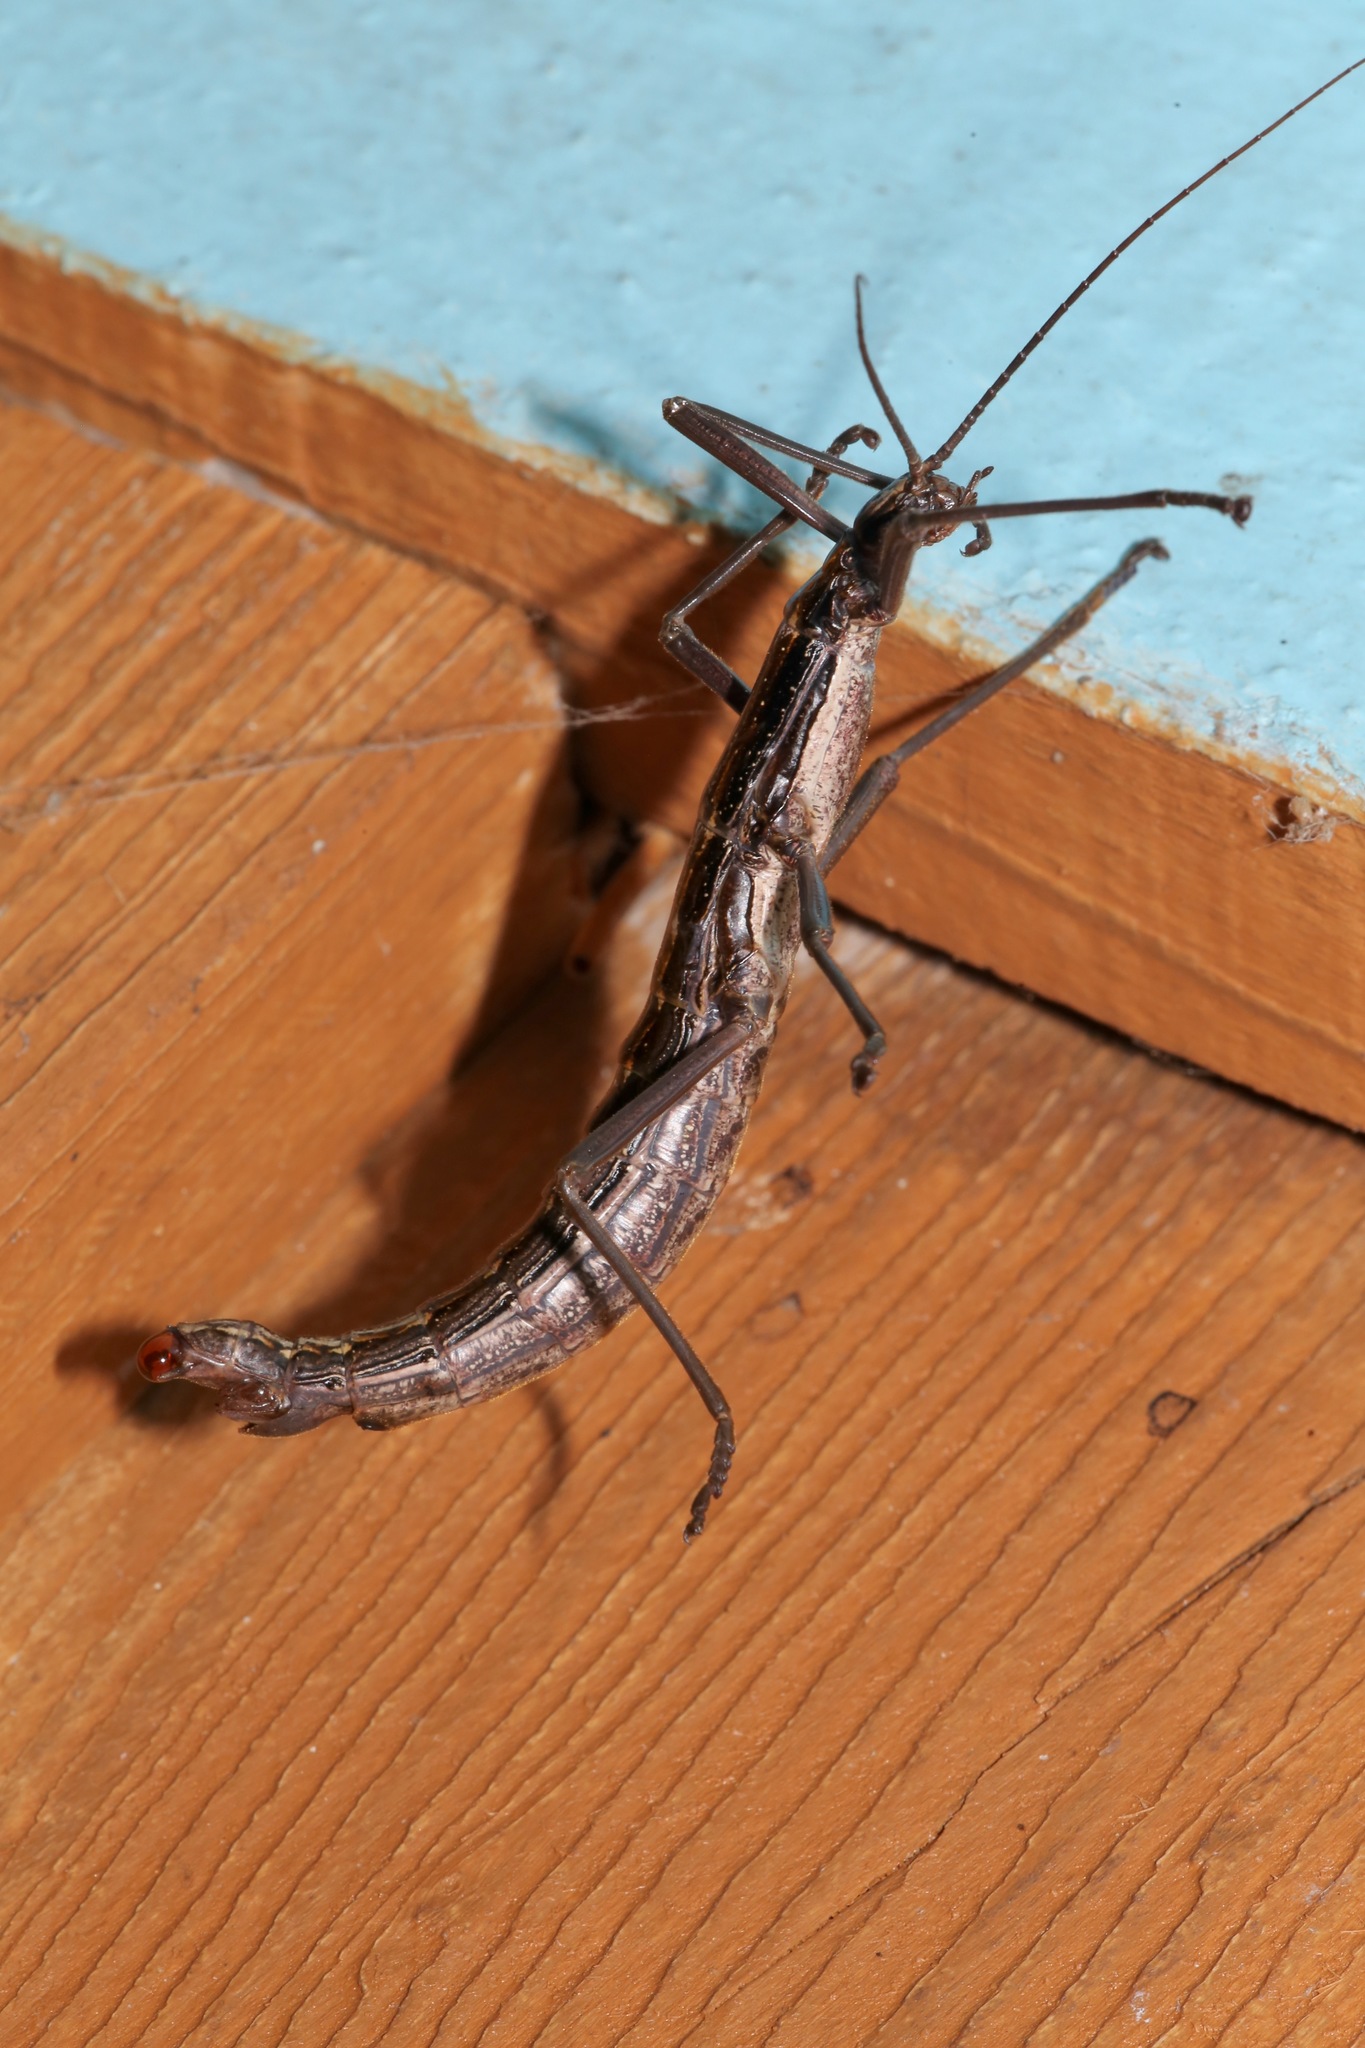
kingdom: Animalia
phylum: Arthropoda
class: Insecta
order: Phasmida
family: Pseudophasmatidae
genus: Anisomorpha
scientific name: Anisomorpha buprestoides
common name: Florida stick insect
